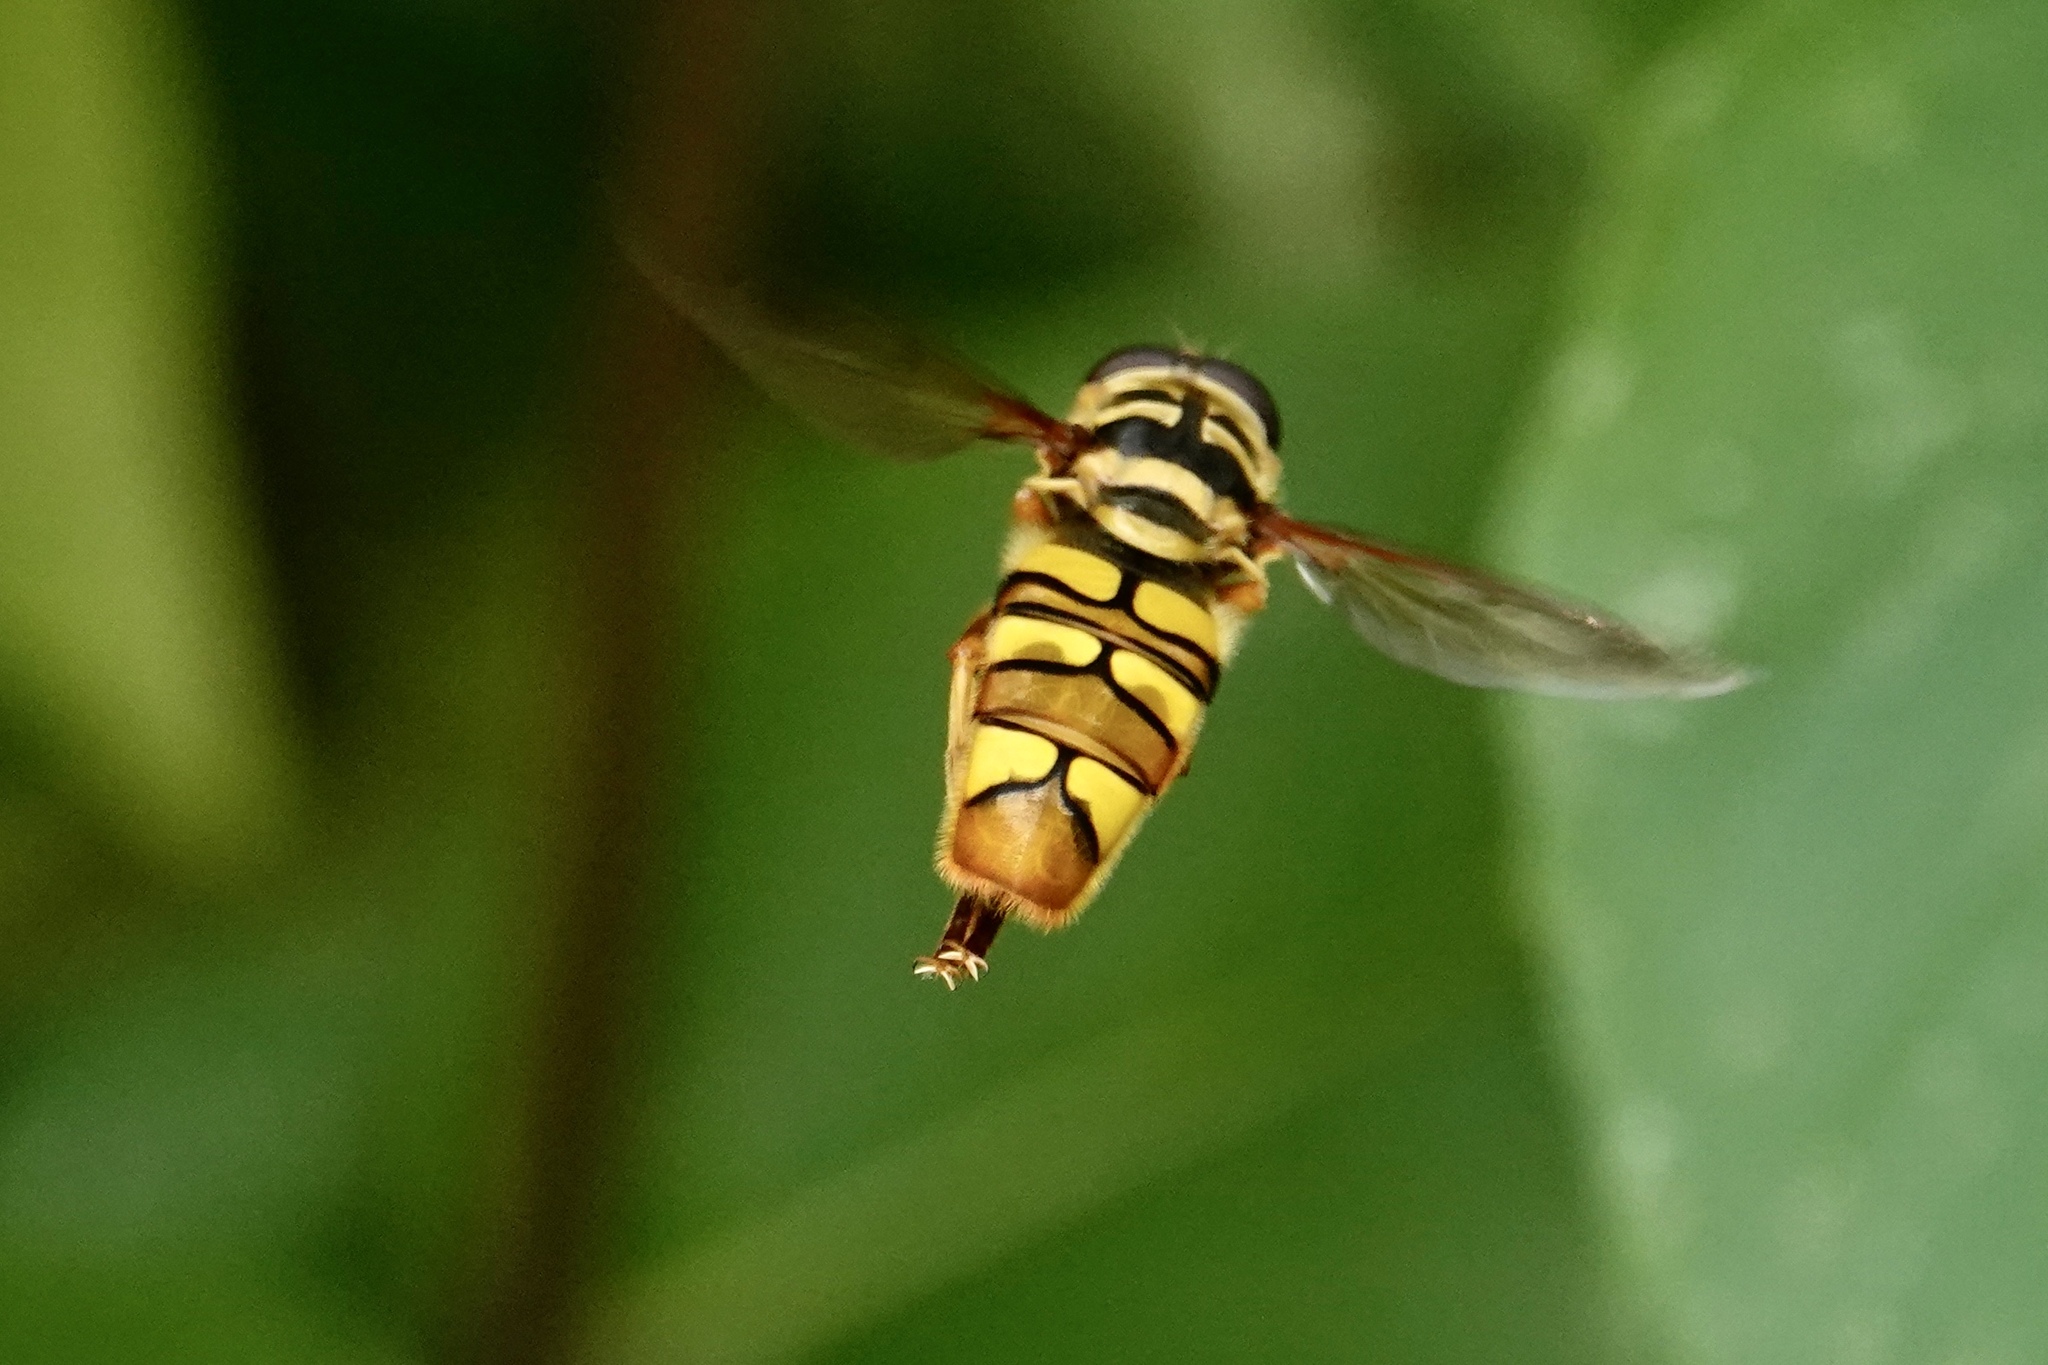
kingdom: Animalia
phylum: Arthropoda
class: Insecta
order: Diptera
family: Syrphidae
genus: Milesia
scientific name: Milesia virginiensis
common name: Virginia giant
